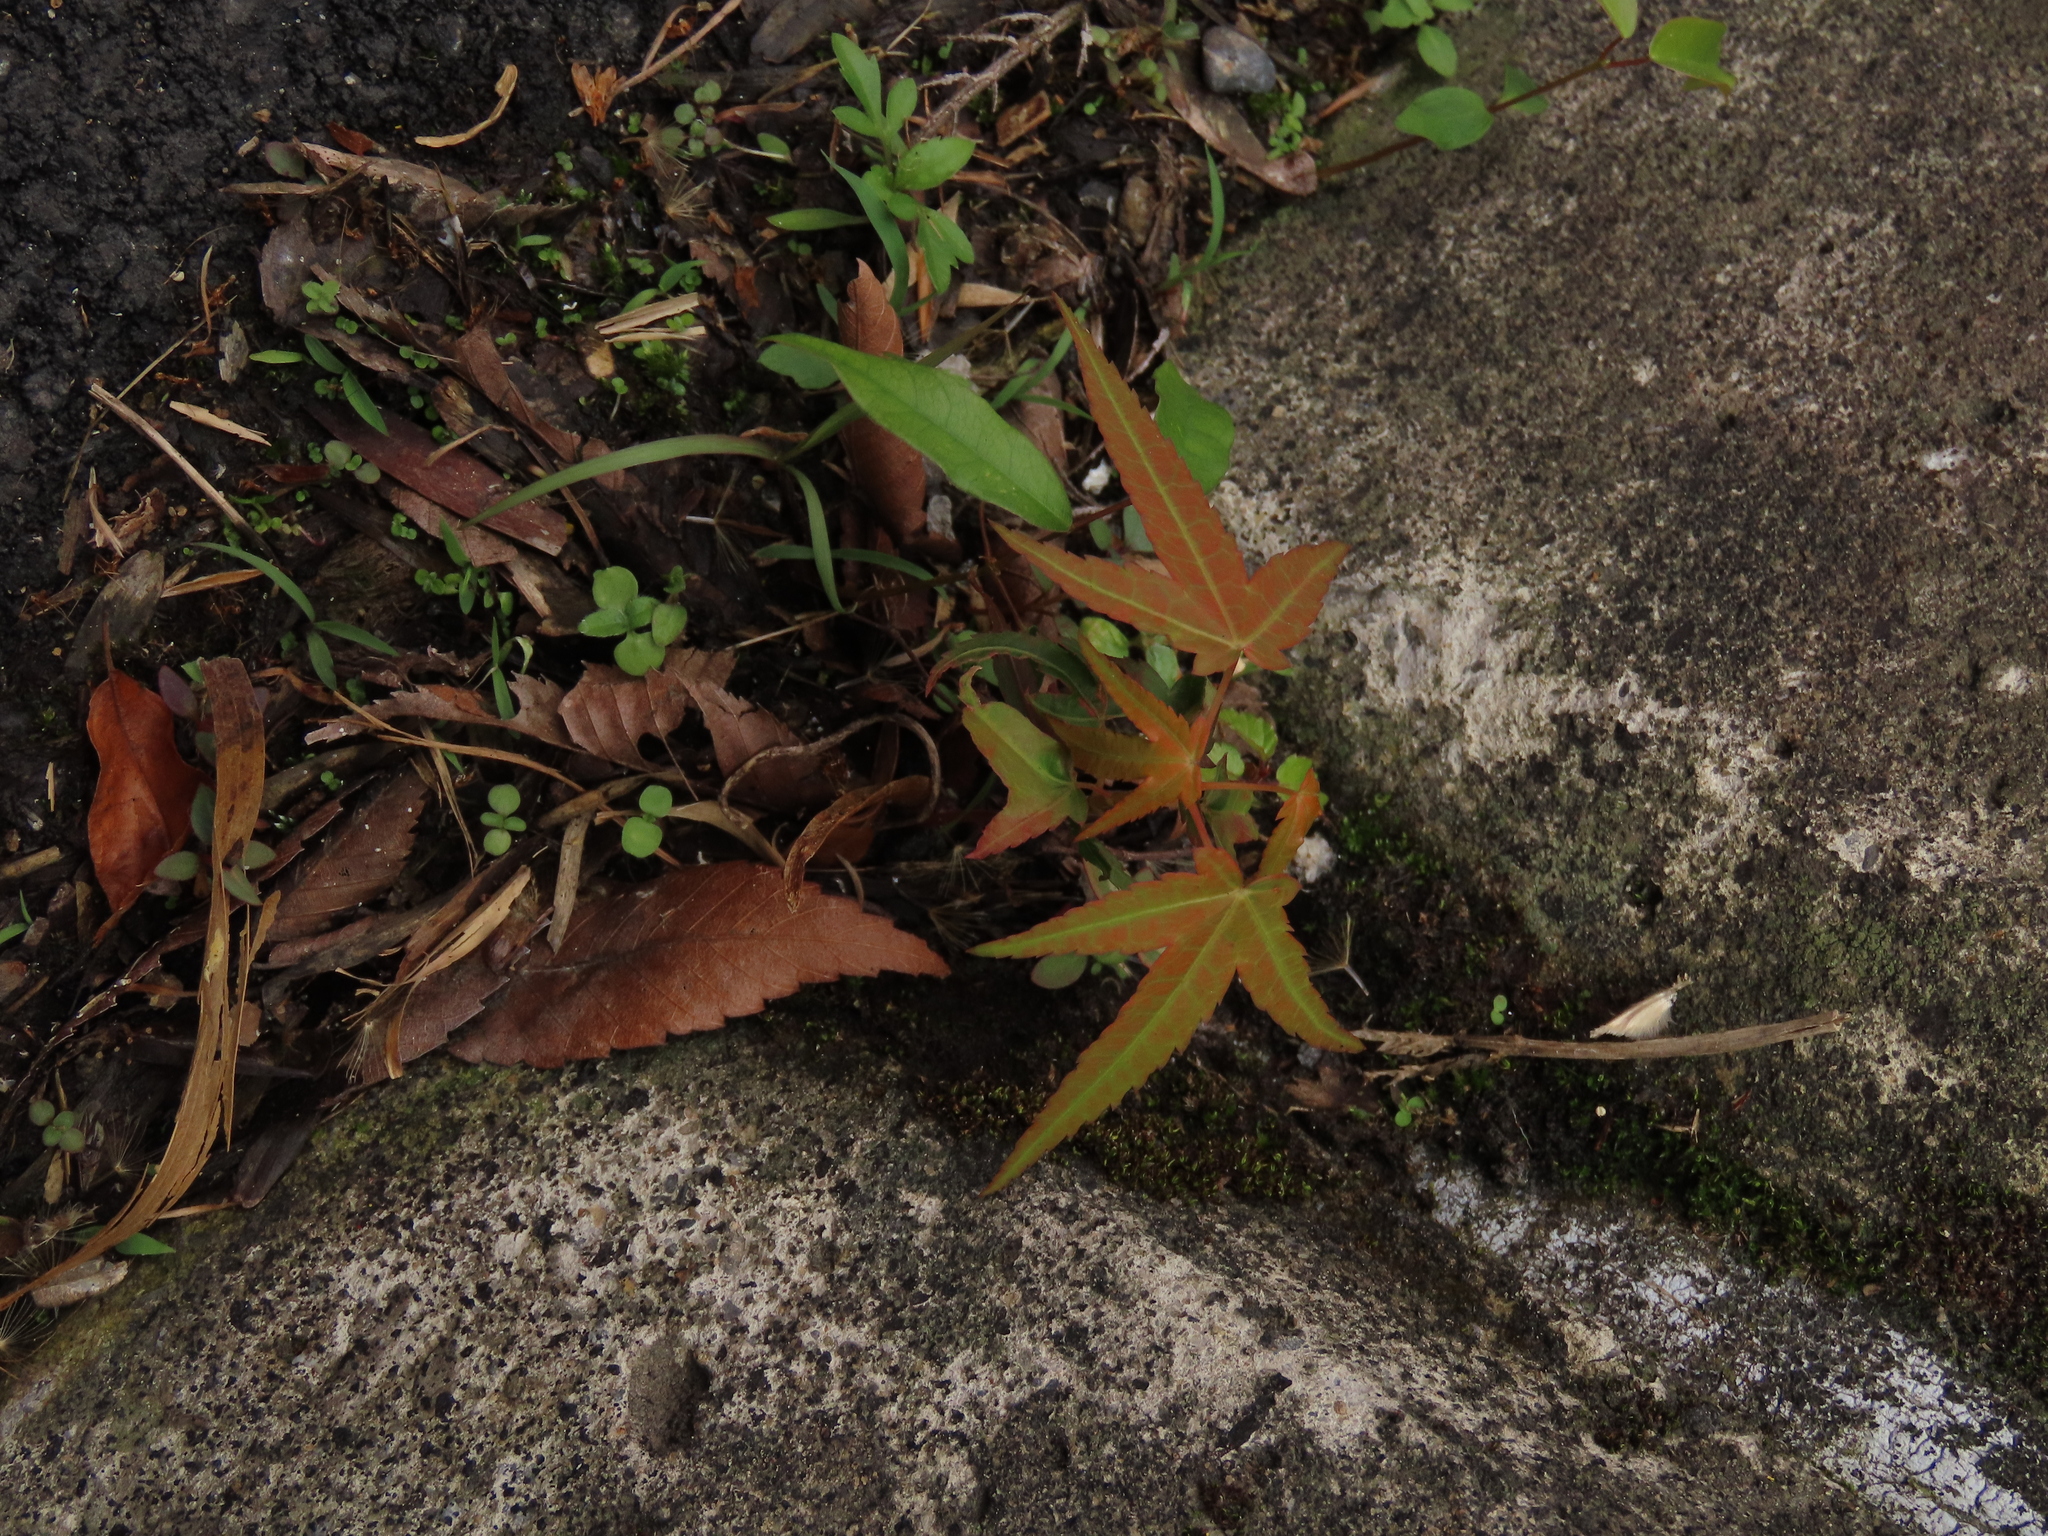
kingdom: Plantae
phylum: Tracheophyta
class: Magnoliopsida
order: Sapindales
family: Sapindaceae
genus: Acer
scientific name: Acer serrulatum
